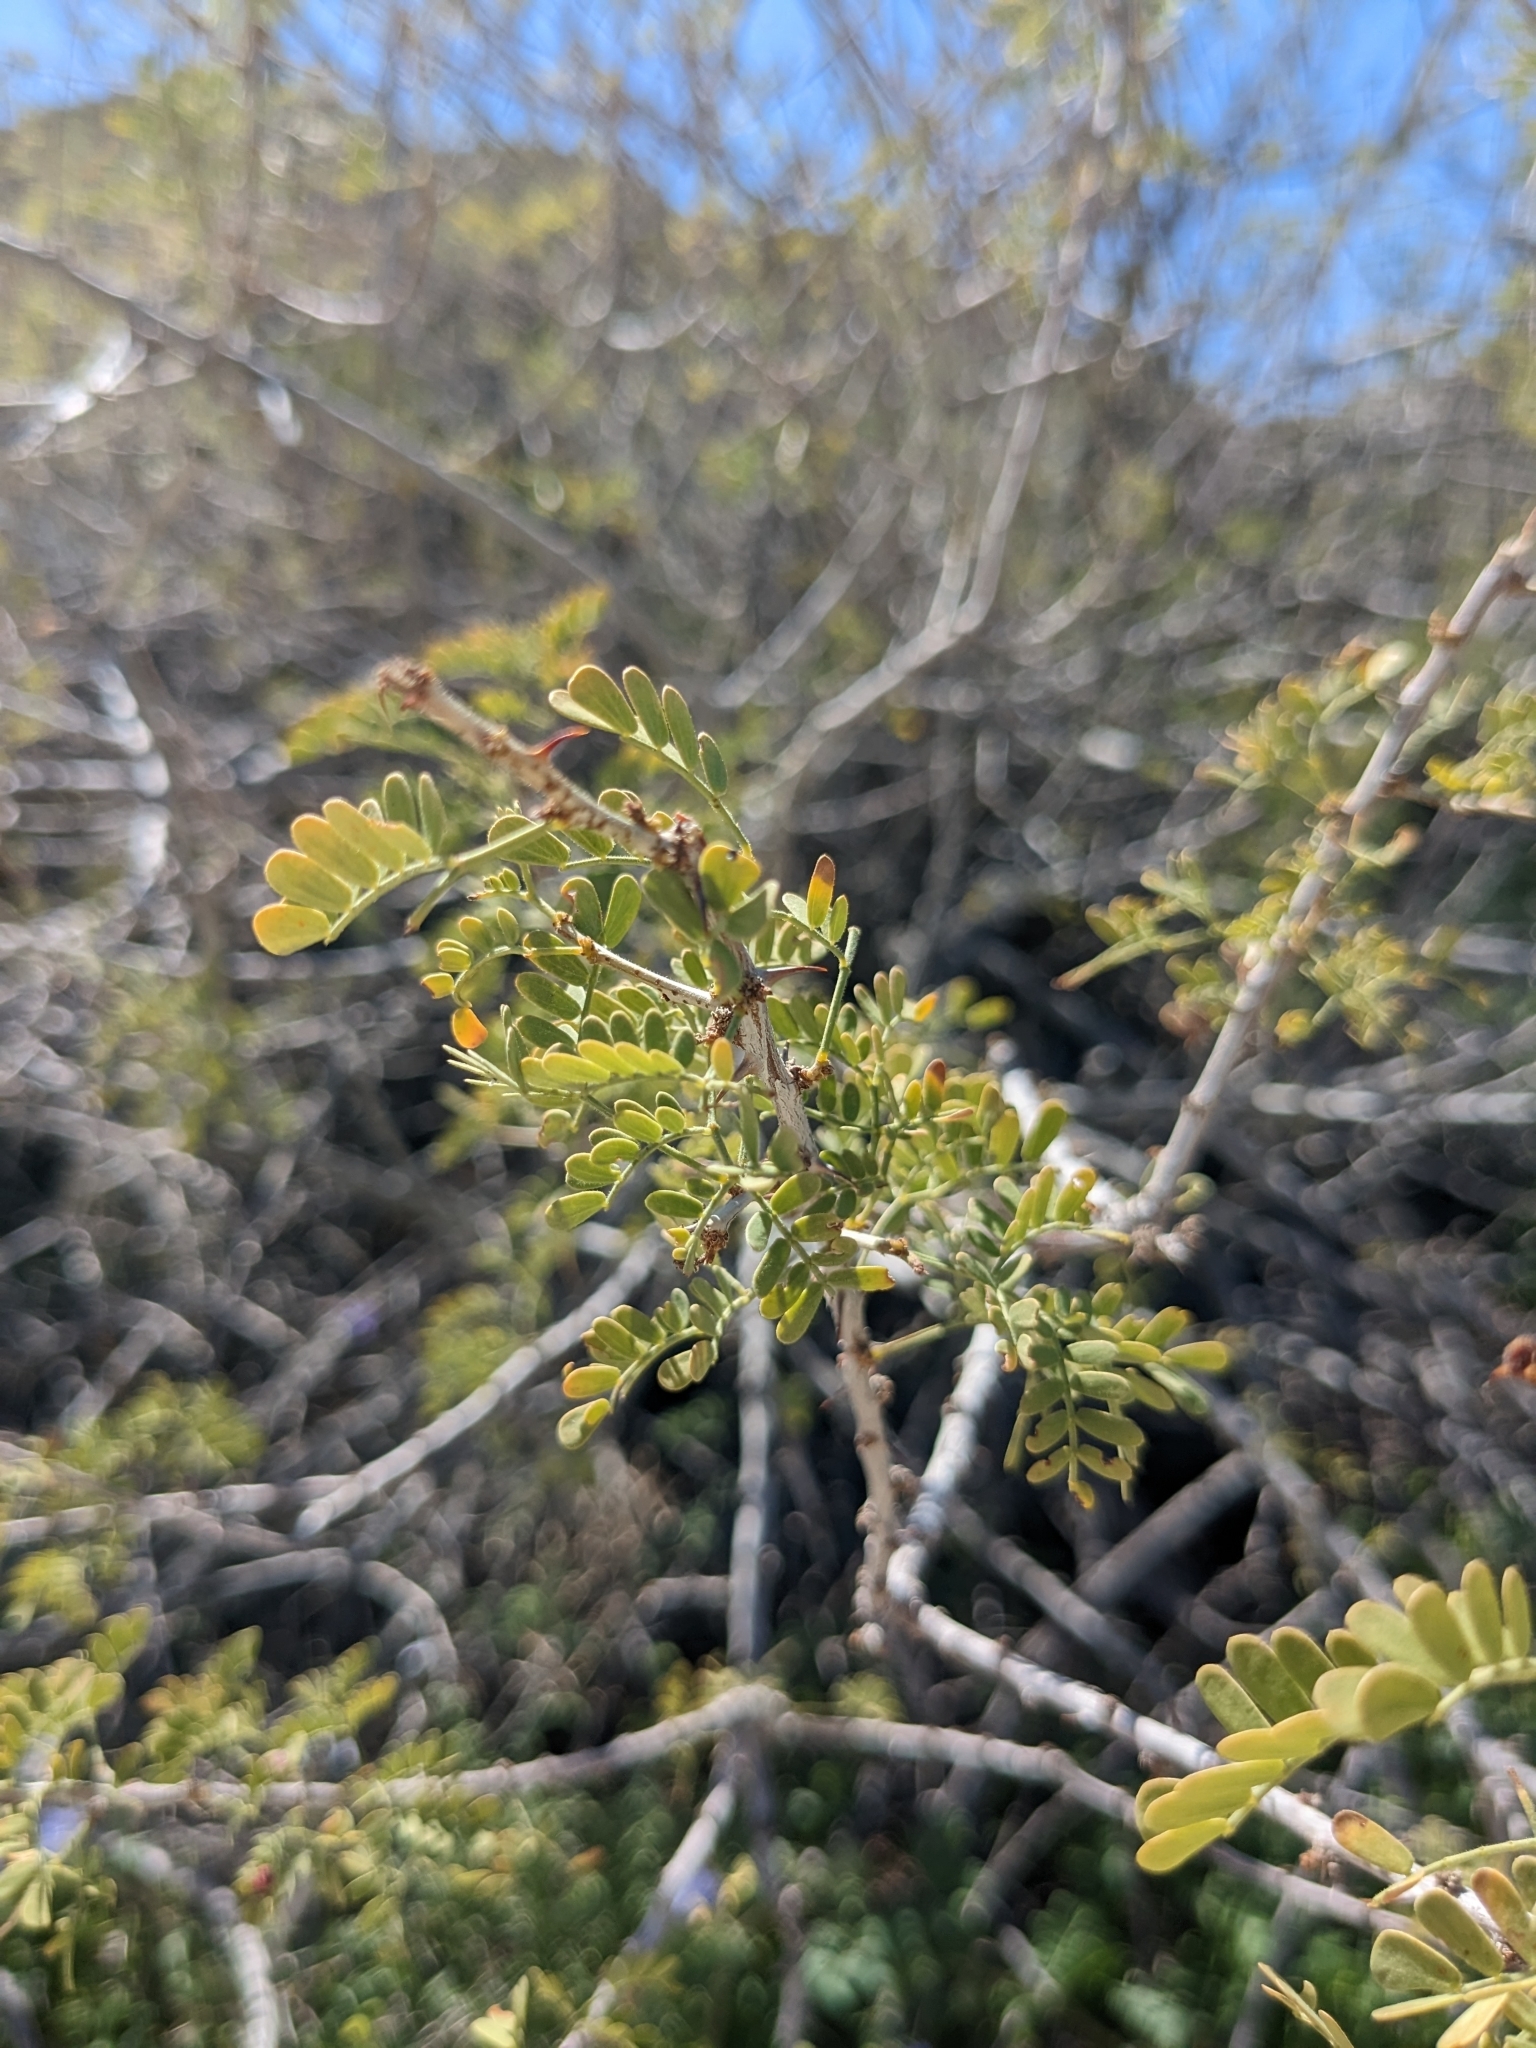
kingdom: Plantae
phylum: Tracheophyta
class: Magnoliopsida
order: Fabales
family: Fabaceae
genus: Senegalia
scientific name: Senegalia greggii
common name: Texas-mimosa
